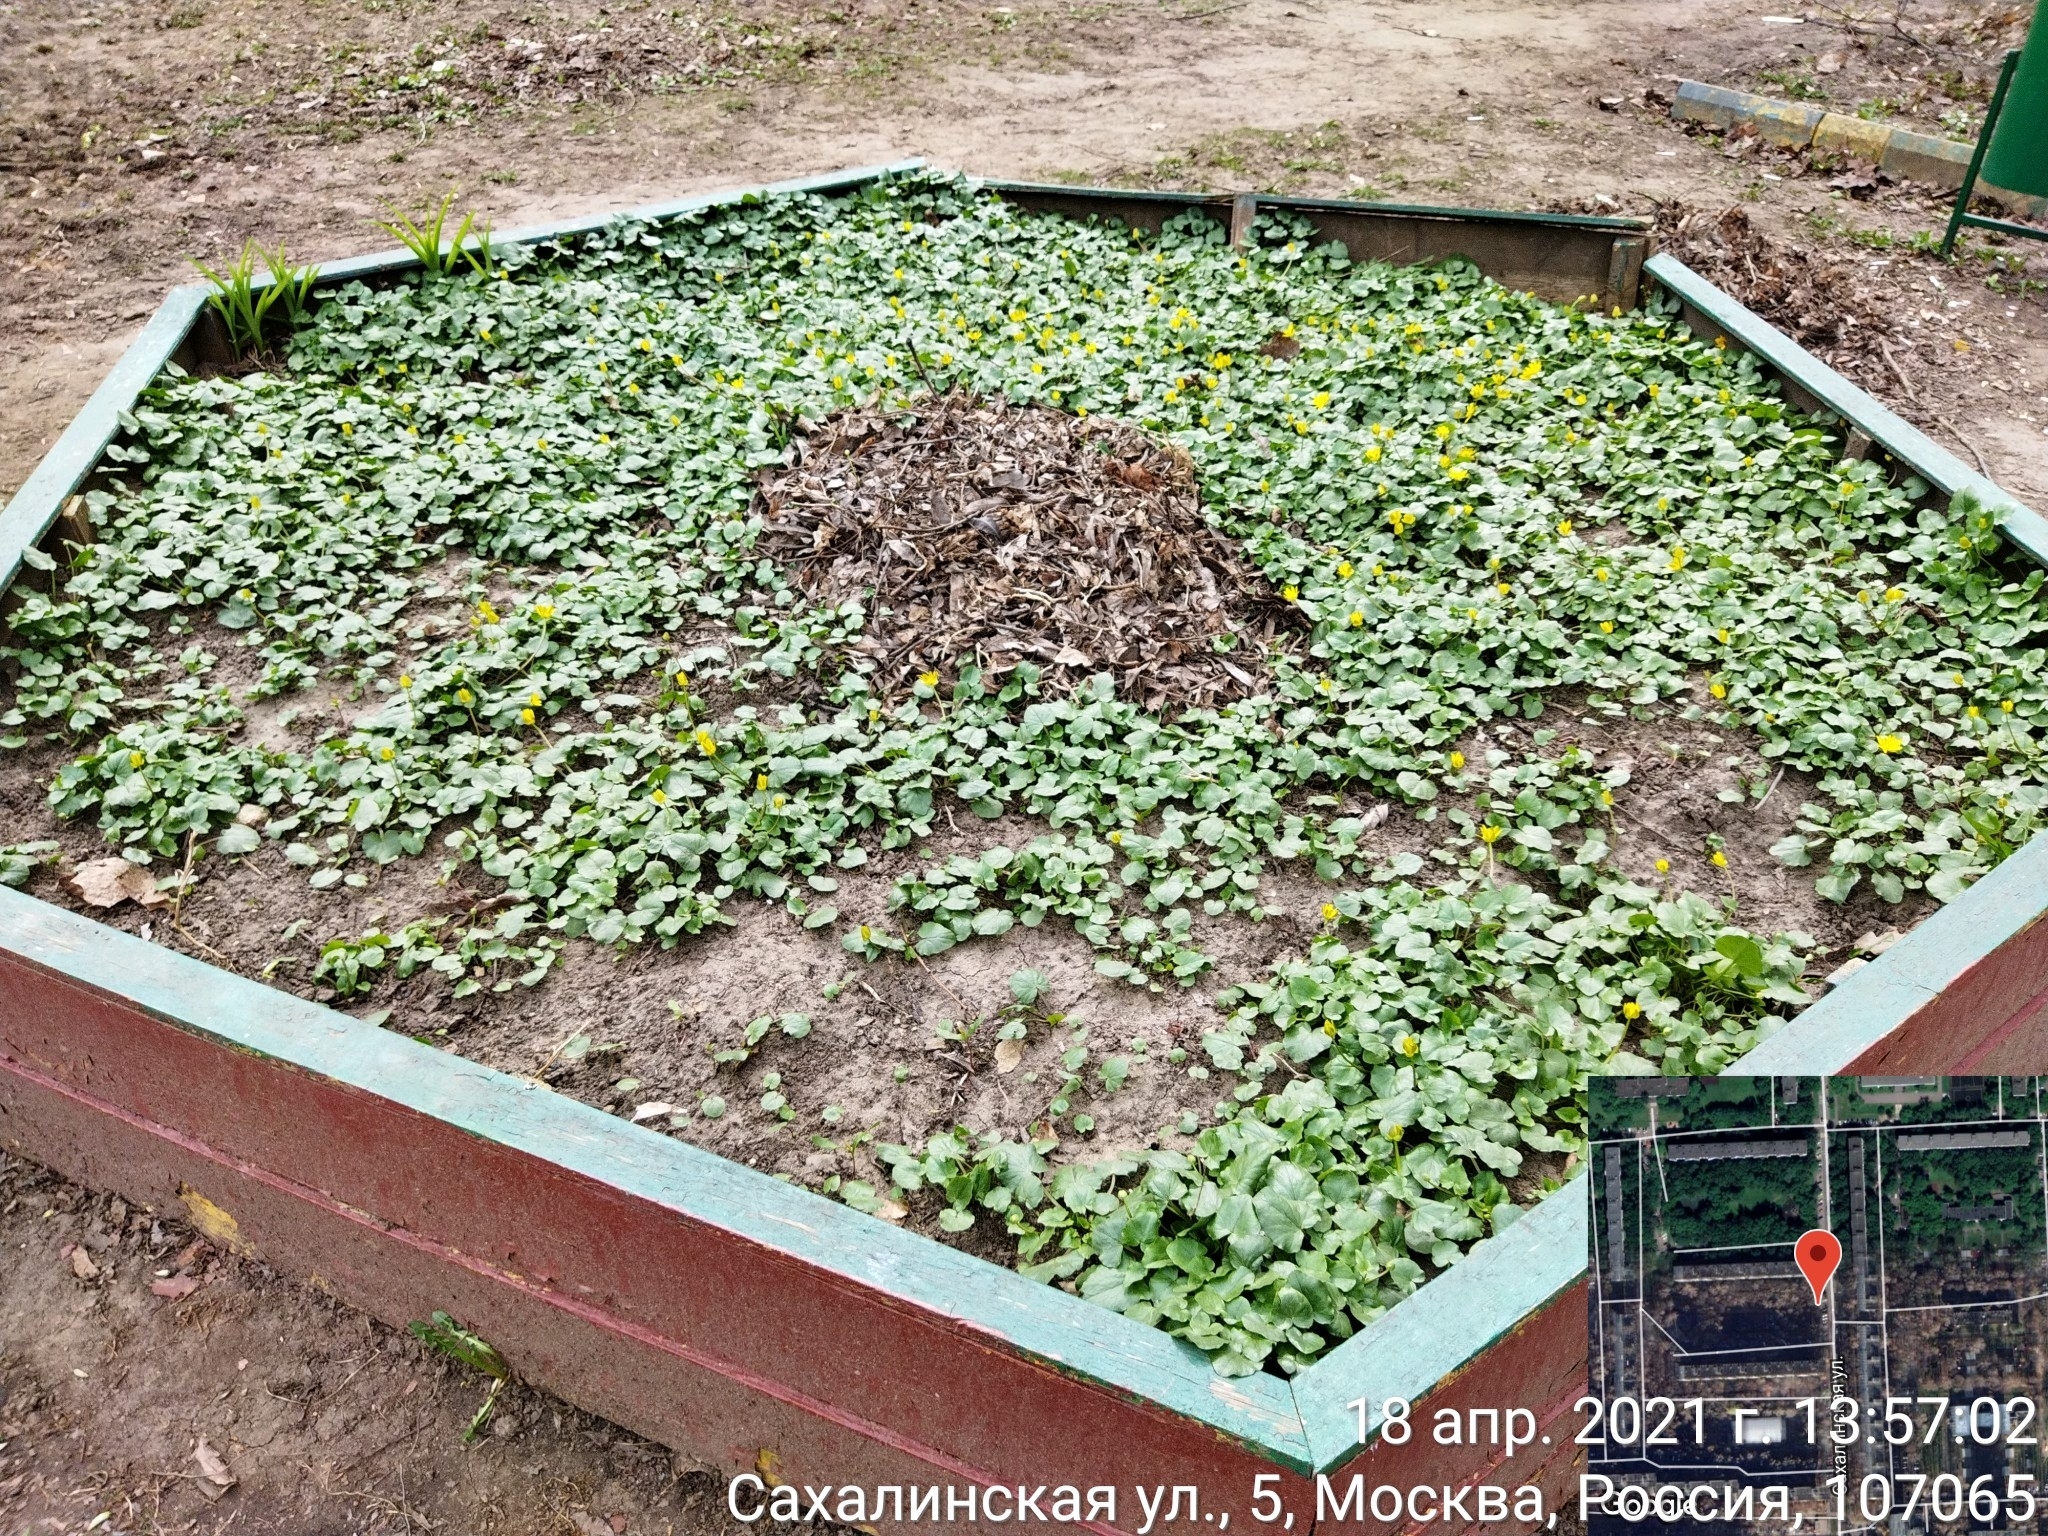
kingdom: Plantae
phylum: Tracheophyta
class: Magnoliopsida
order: Ranunculales
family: Ranunculaceae
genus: Ficaria
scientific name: Ficaria verna
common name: Lesser celandine
